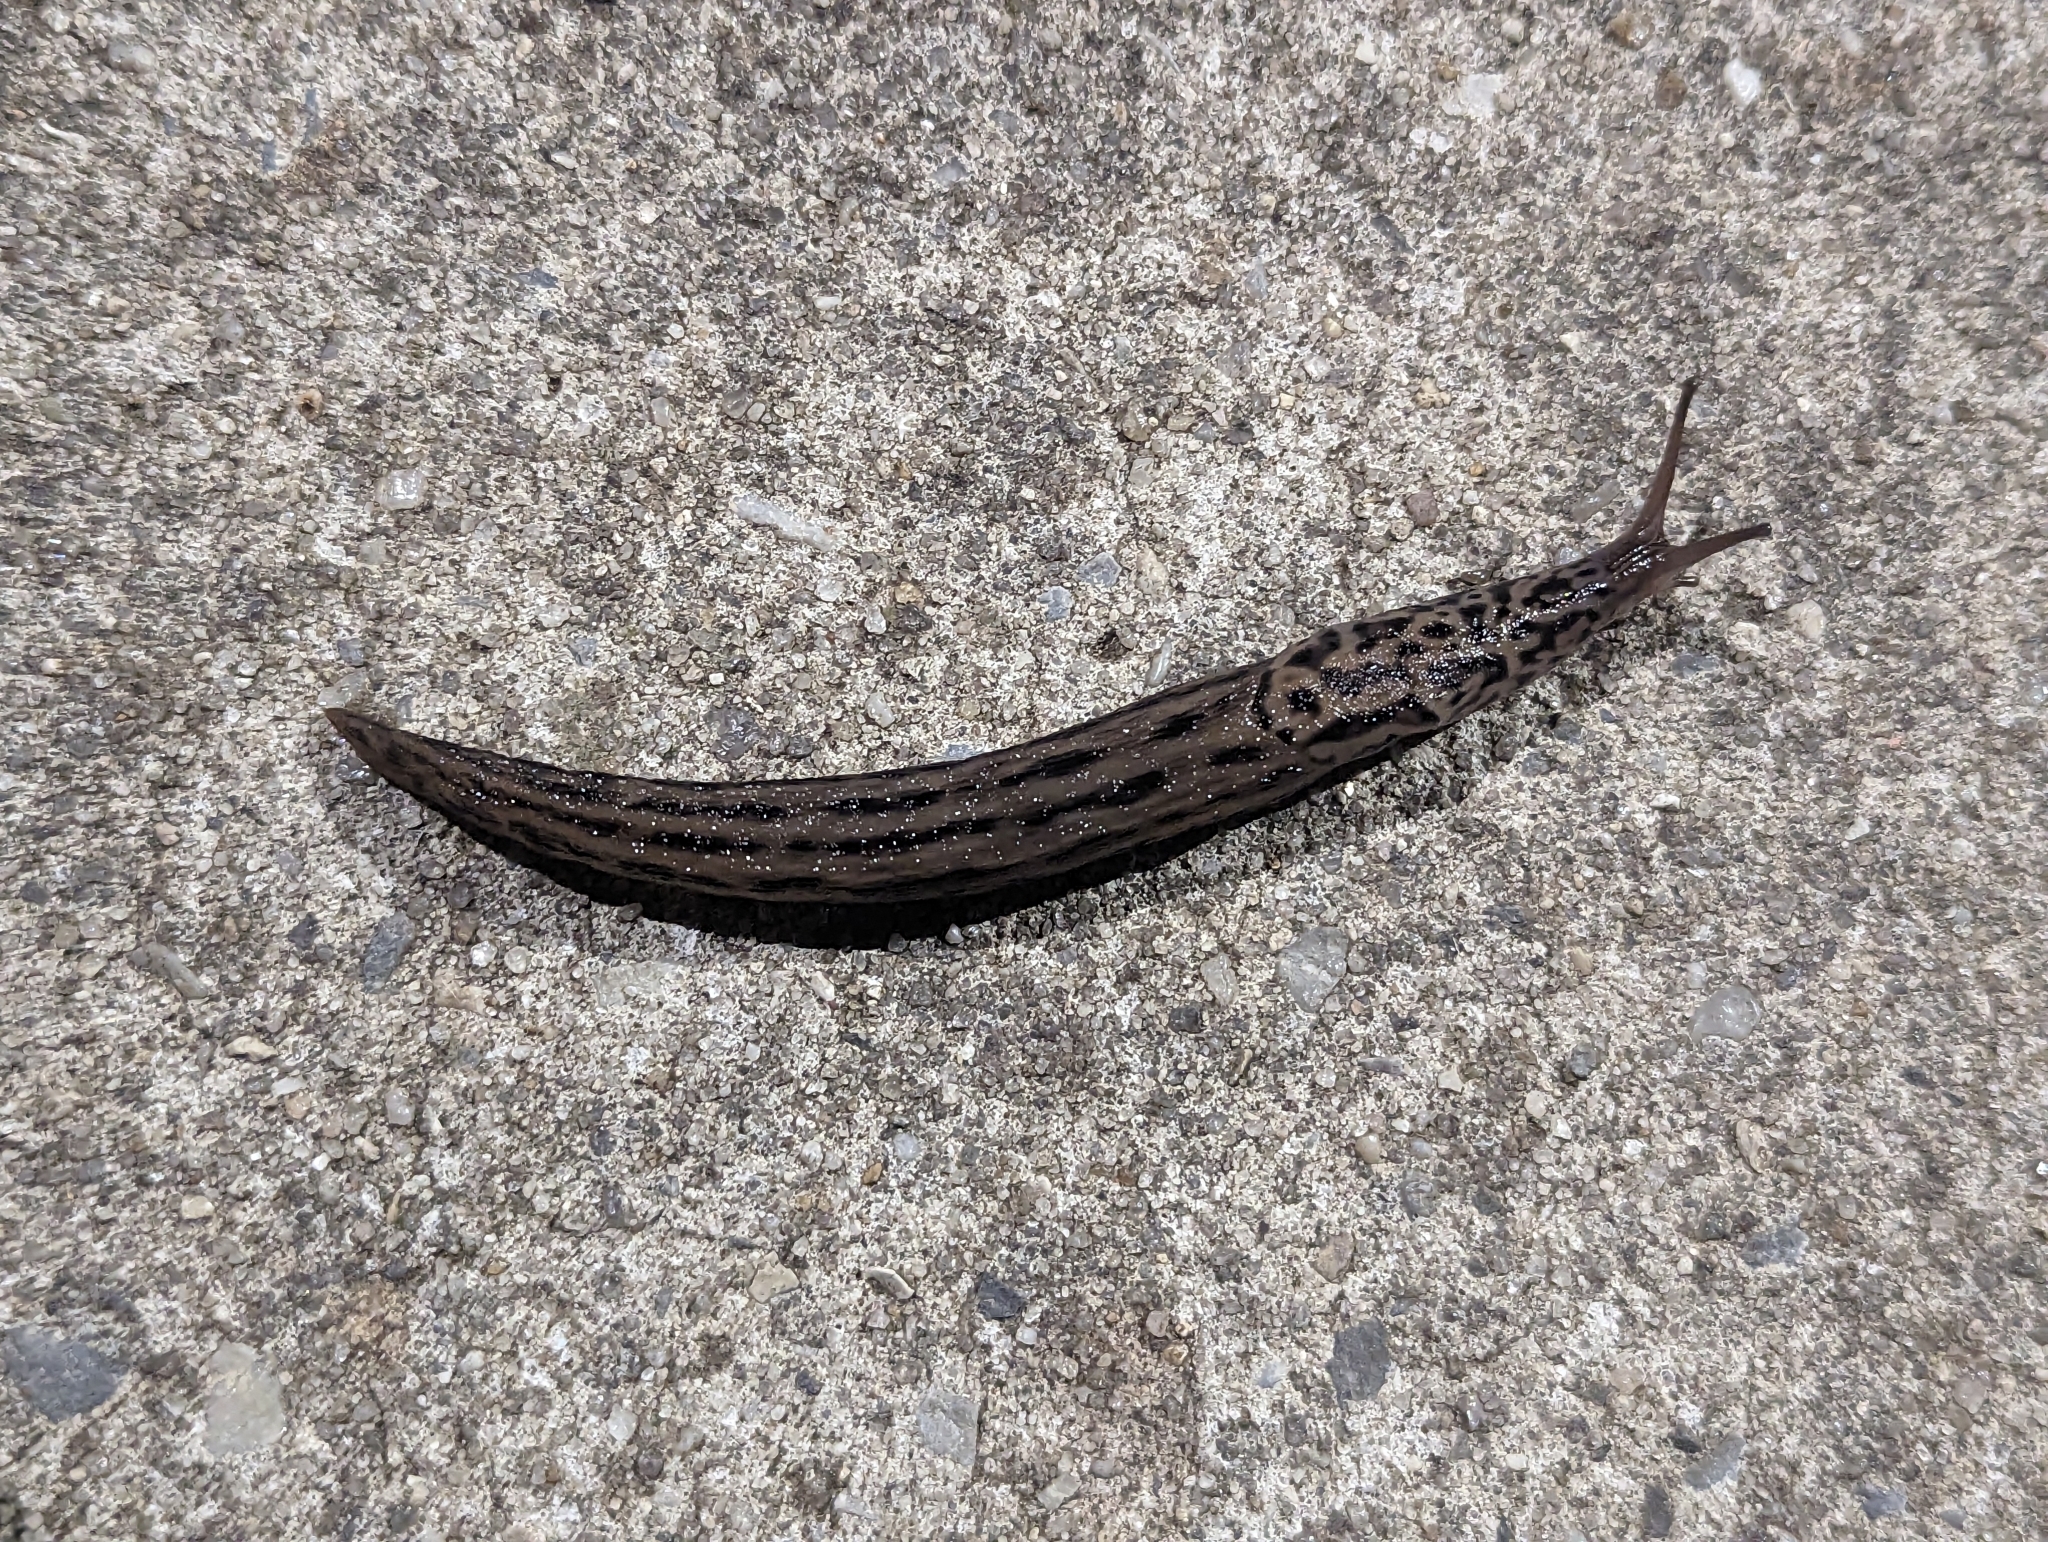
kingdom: Animalia
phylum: Mollusca
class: Gastropoda
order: Stylommatophora
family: Limacidae
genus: Limax
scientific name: Limax maximus
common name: Great grey slug
